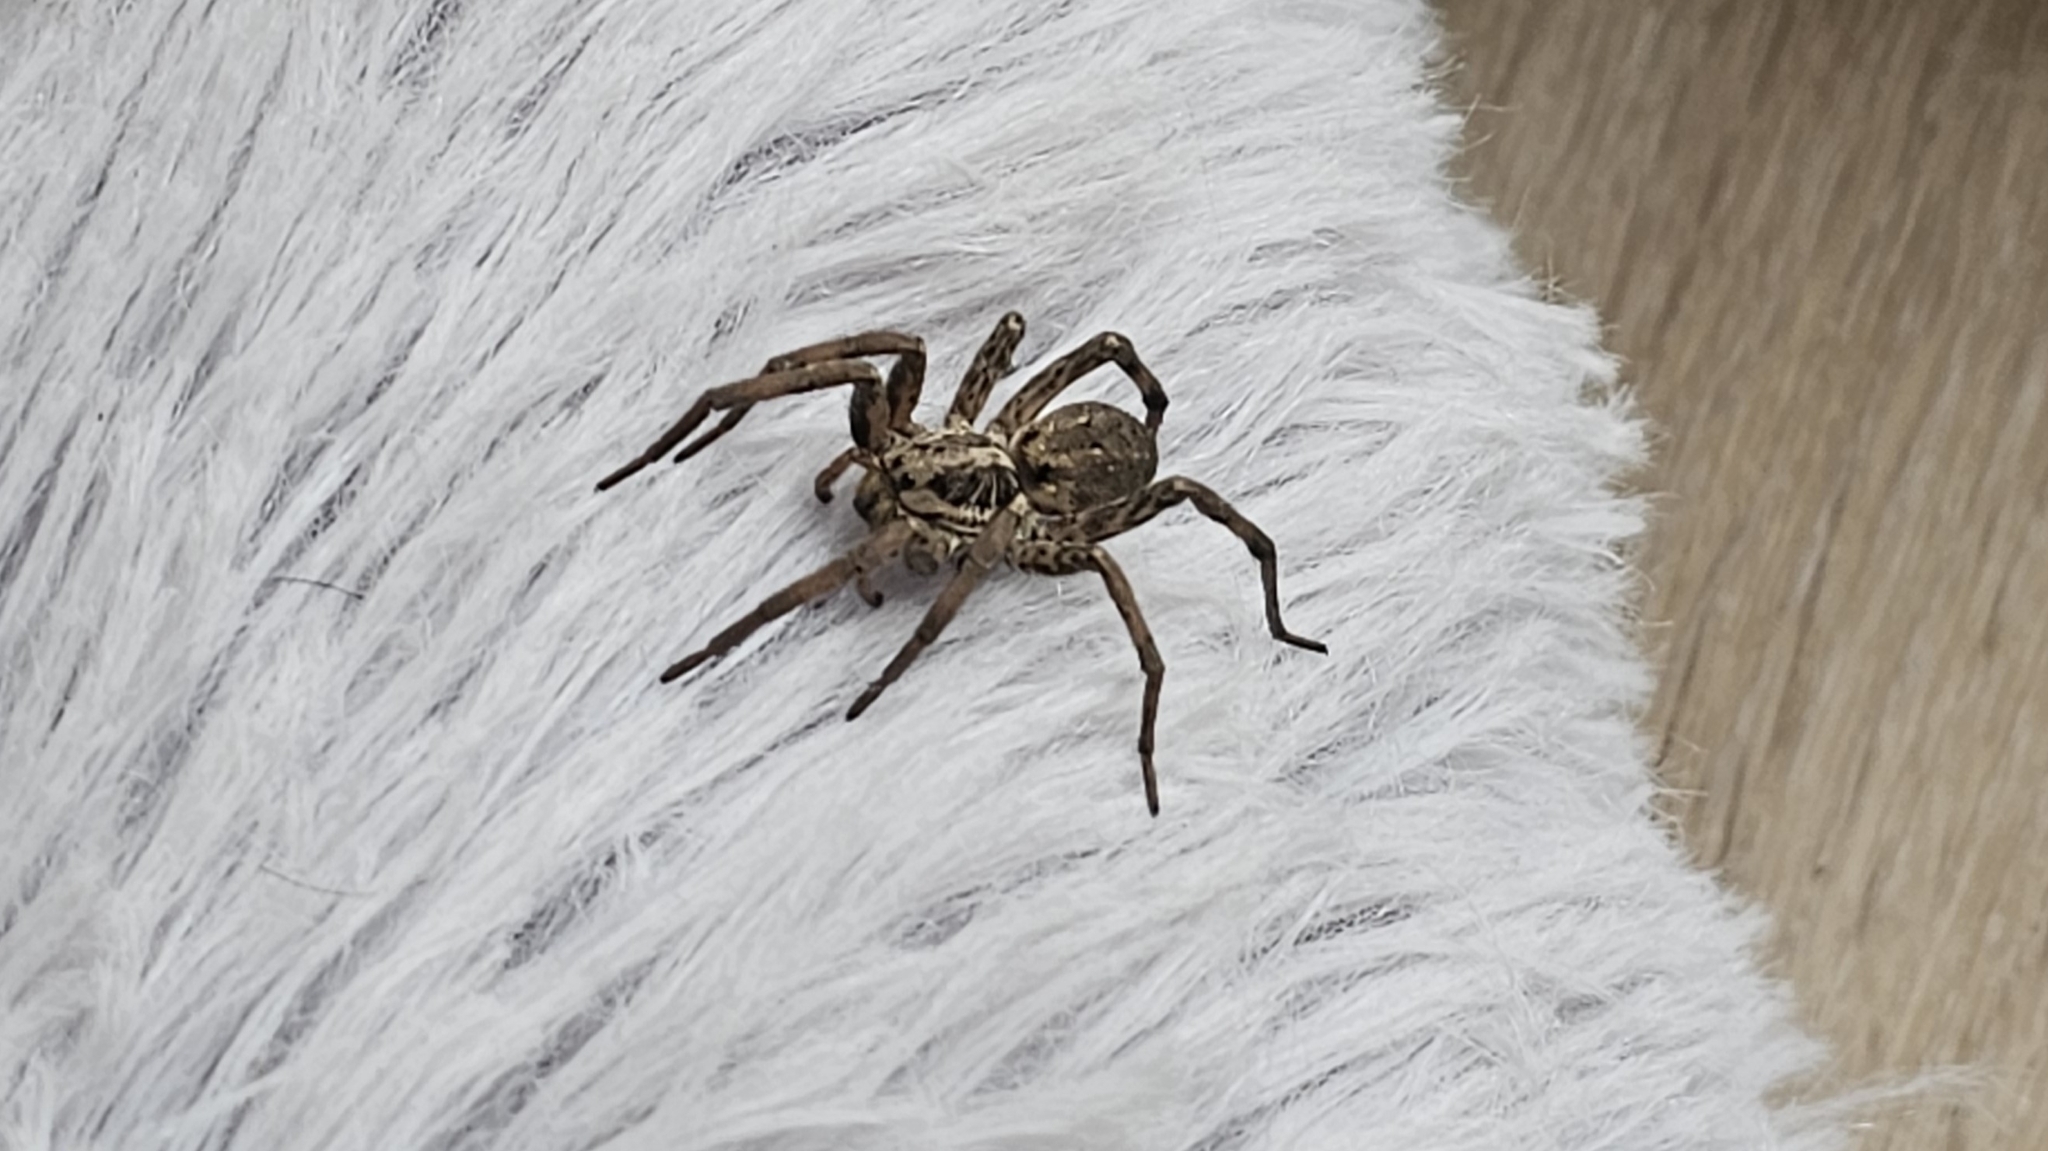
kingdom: Animalia
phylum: Arthropoda
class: Arachnida
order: Araneae
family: Lycosidae
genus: Hogna
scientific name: Hogna radiata
